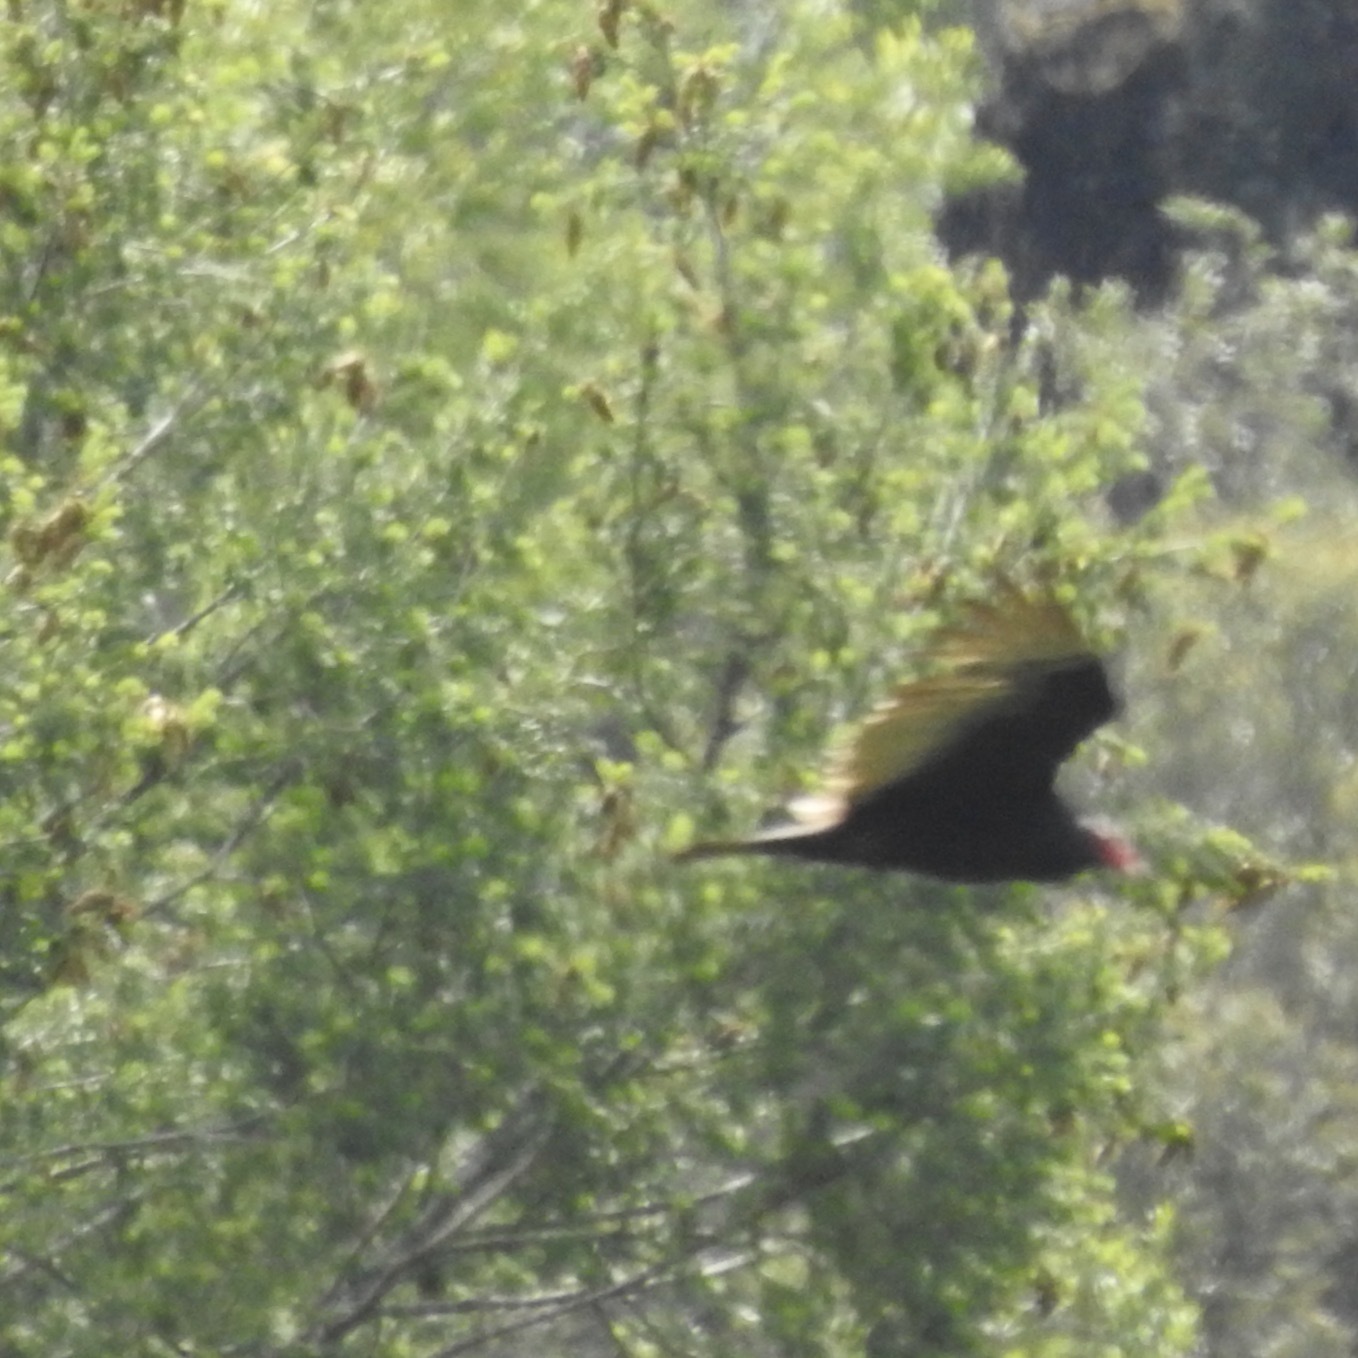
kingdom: Animalia
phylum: Chordata
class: Aves
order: Accipitriformes
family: Cathartidae
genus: Cathartes
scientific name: Cathartes aura
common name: Turkey vulture
